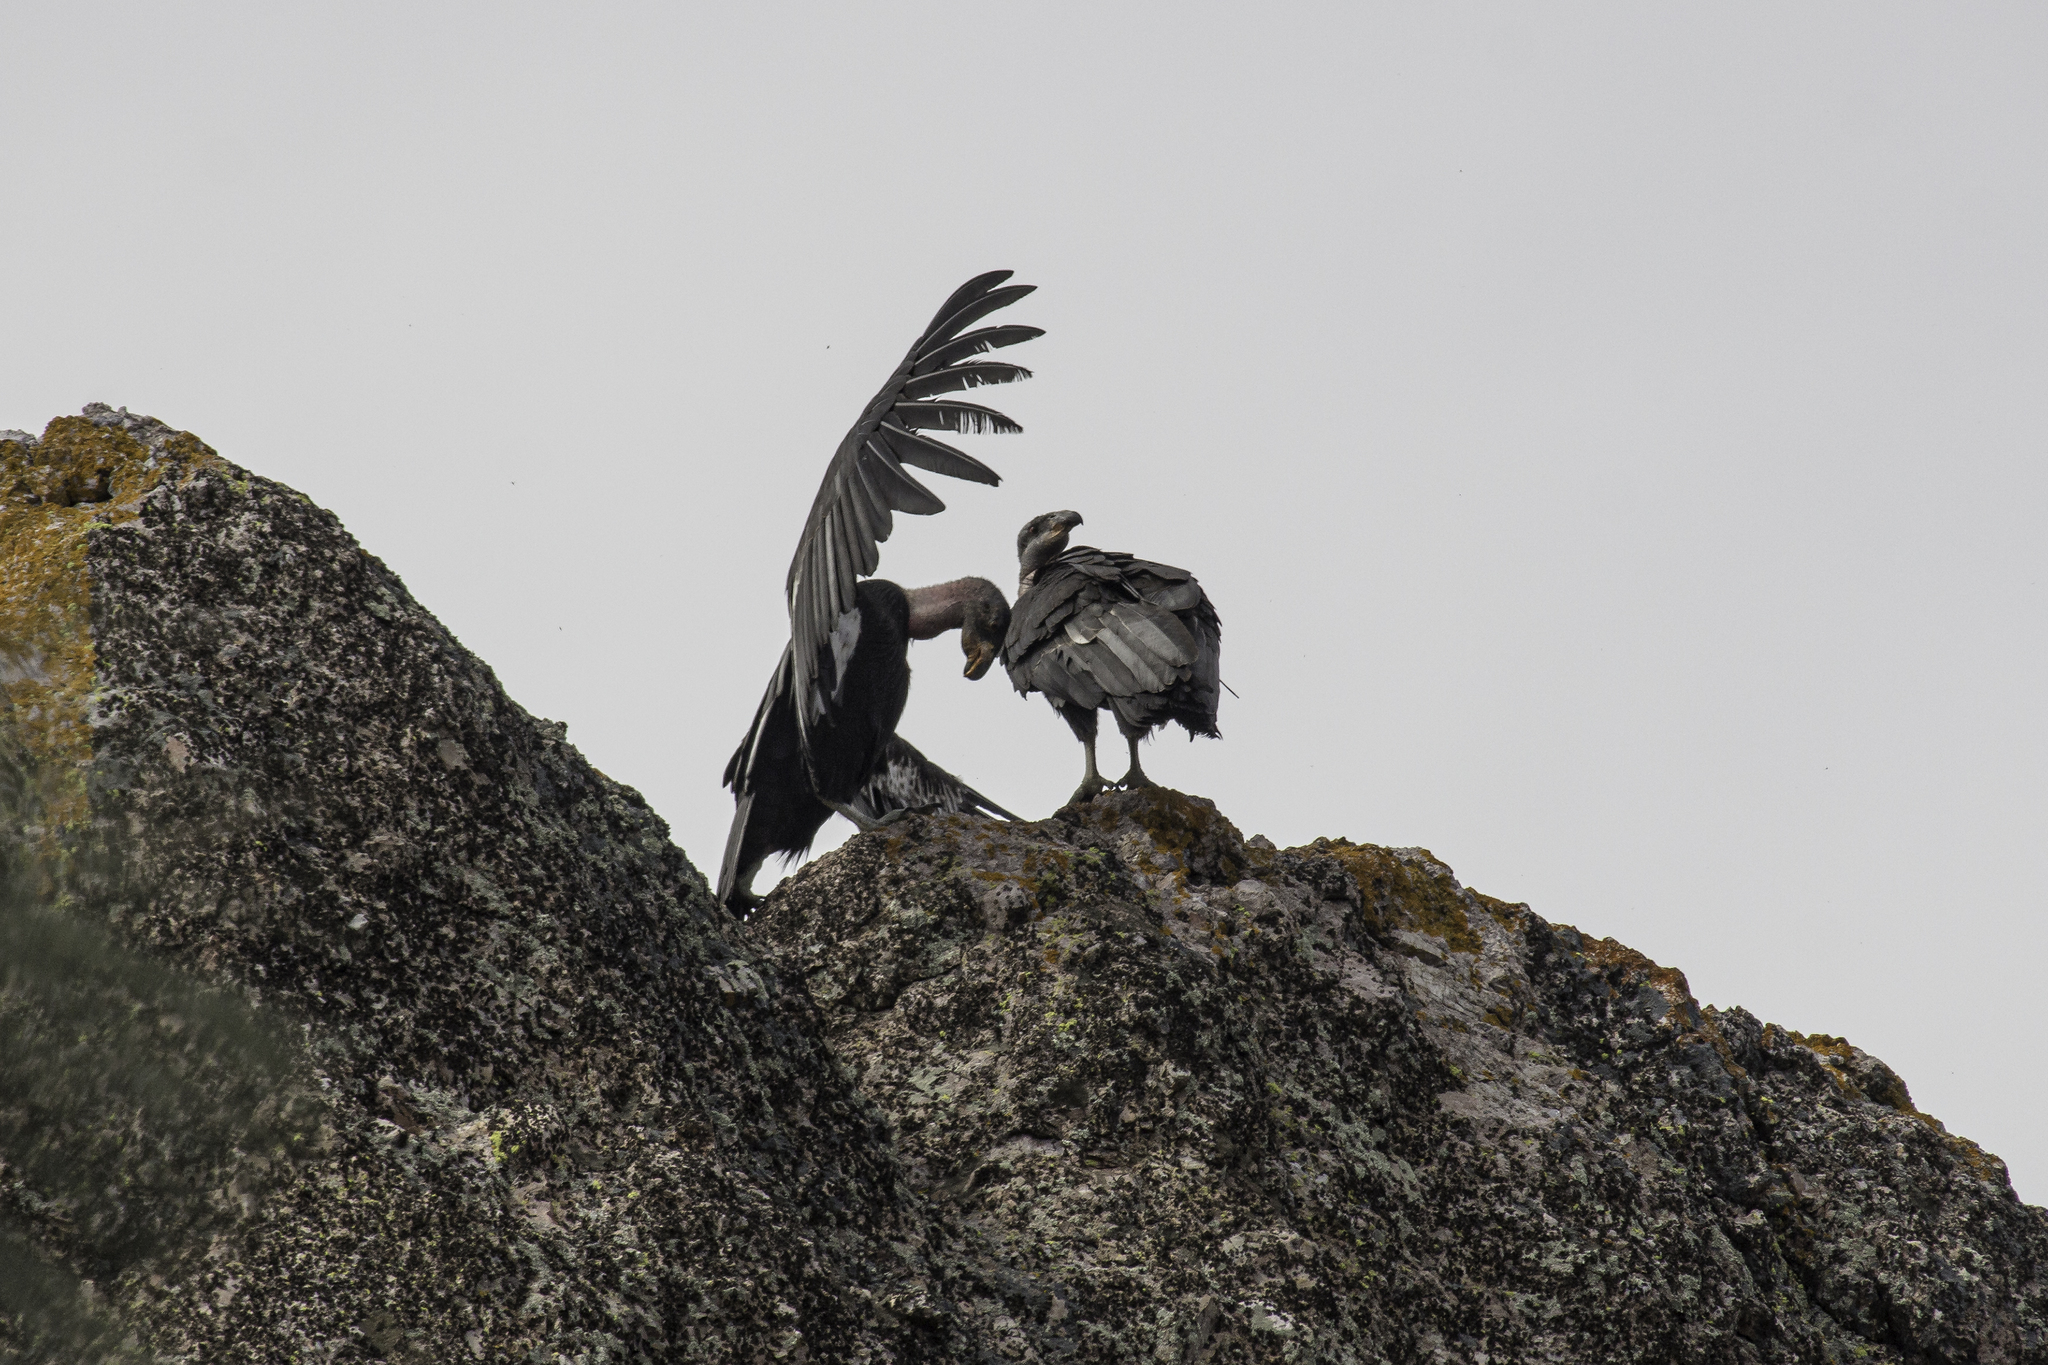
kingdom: Animalia
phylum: Chordata
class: Aves
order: Accipitriformes
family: Cathartidae
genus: Gymnogyps
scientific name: Gymnogyps californianus
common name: California condor
